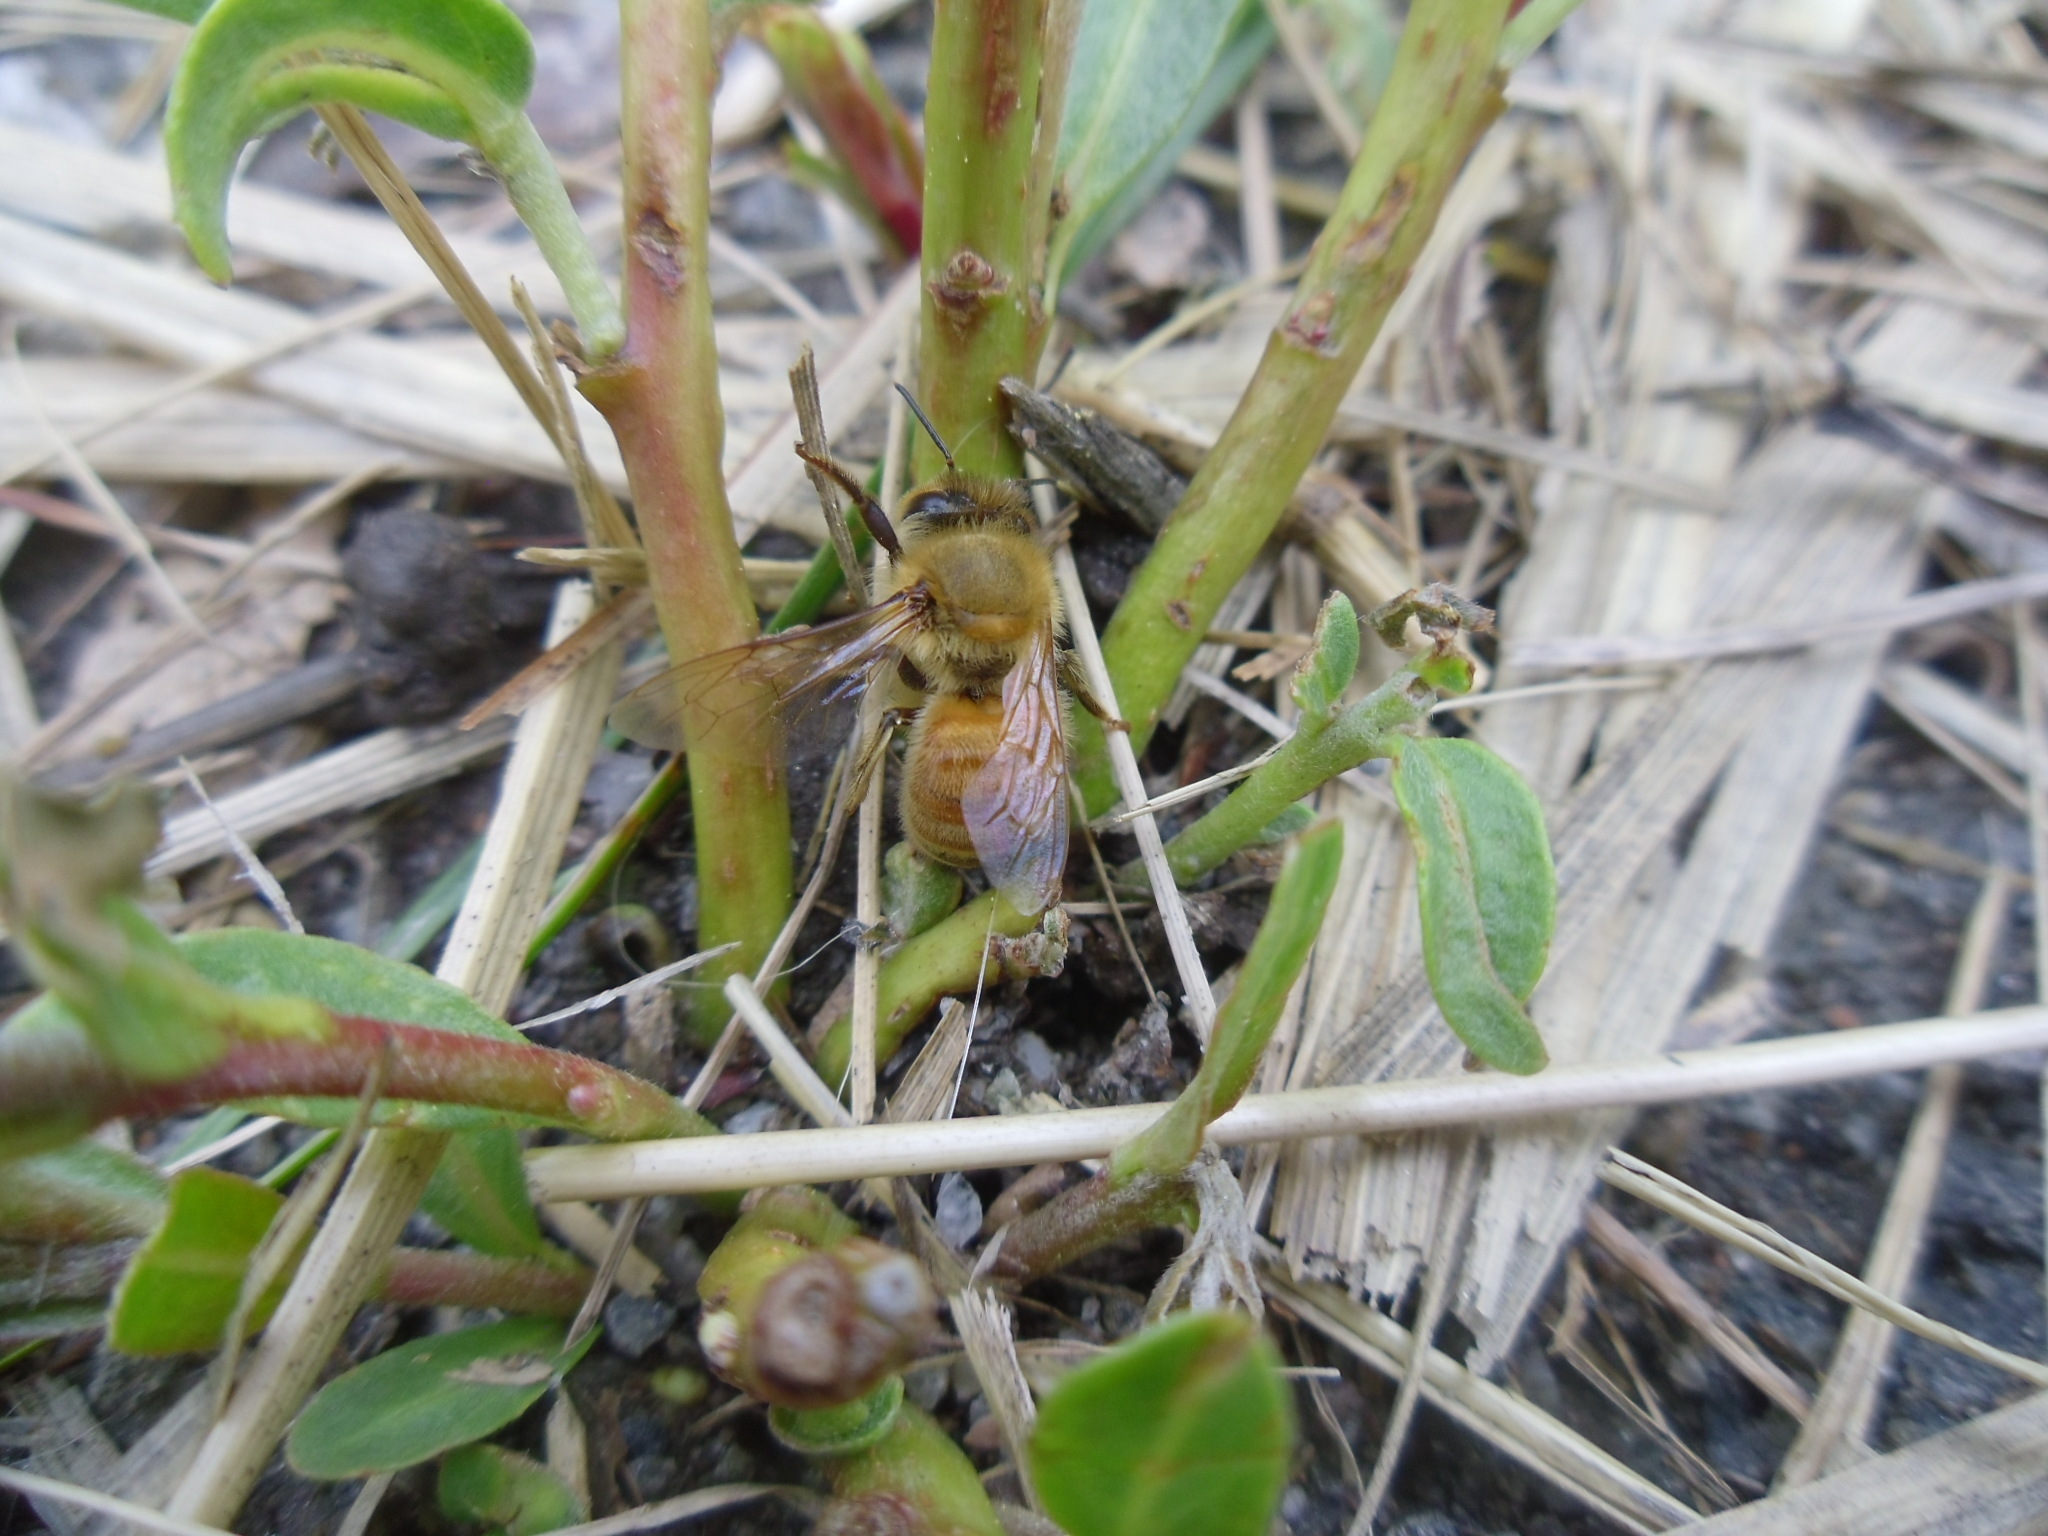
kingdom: Animalia
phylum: Arthropoda
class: Insecta
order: Hymenoptera
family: Apidae
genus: Apis
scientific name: Apis mellifera
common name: Honey bee
